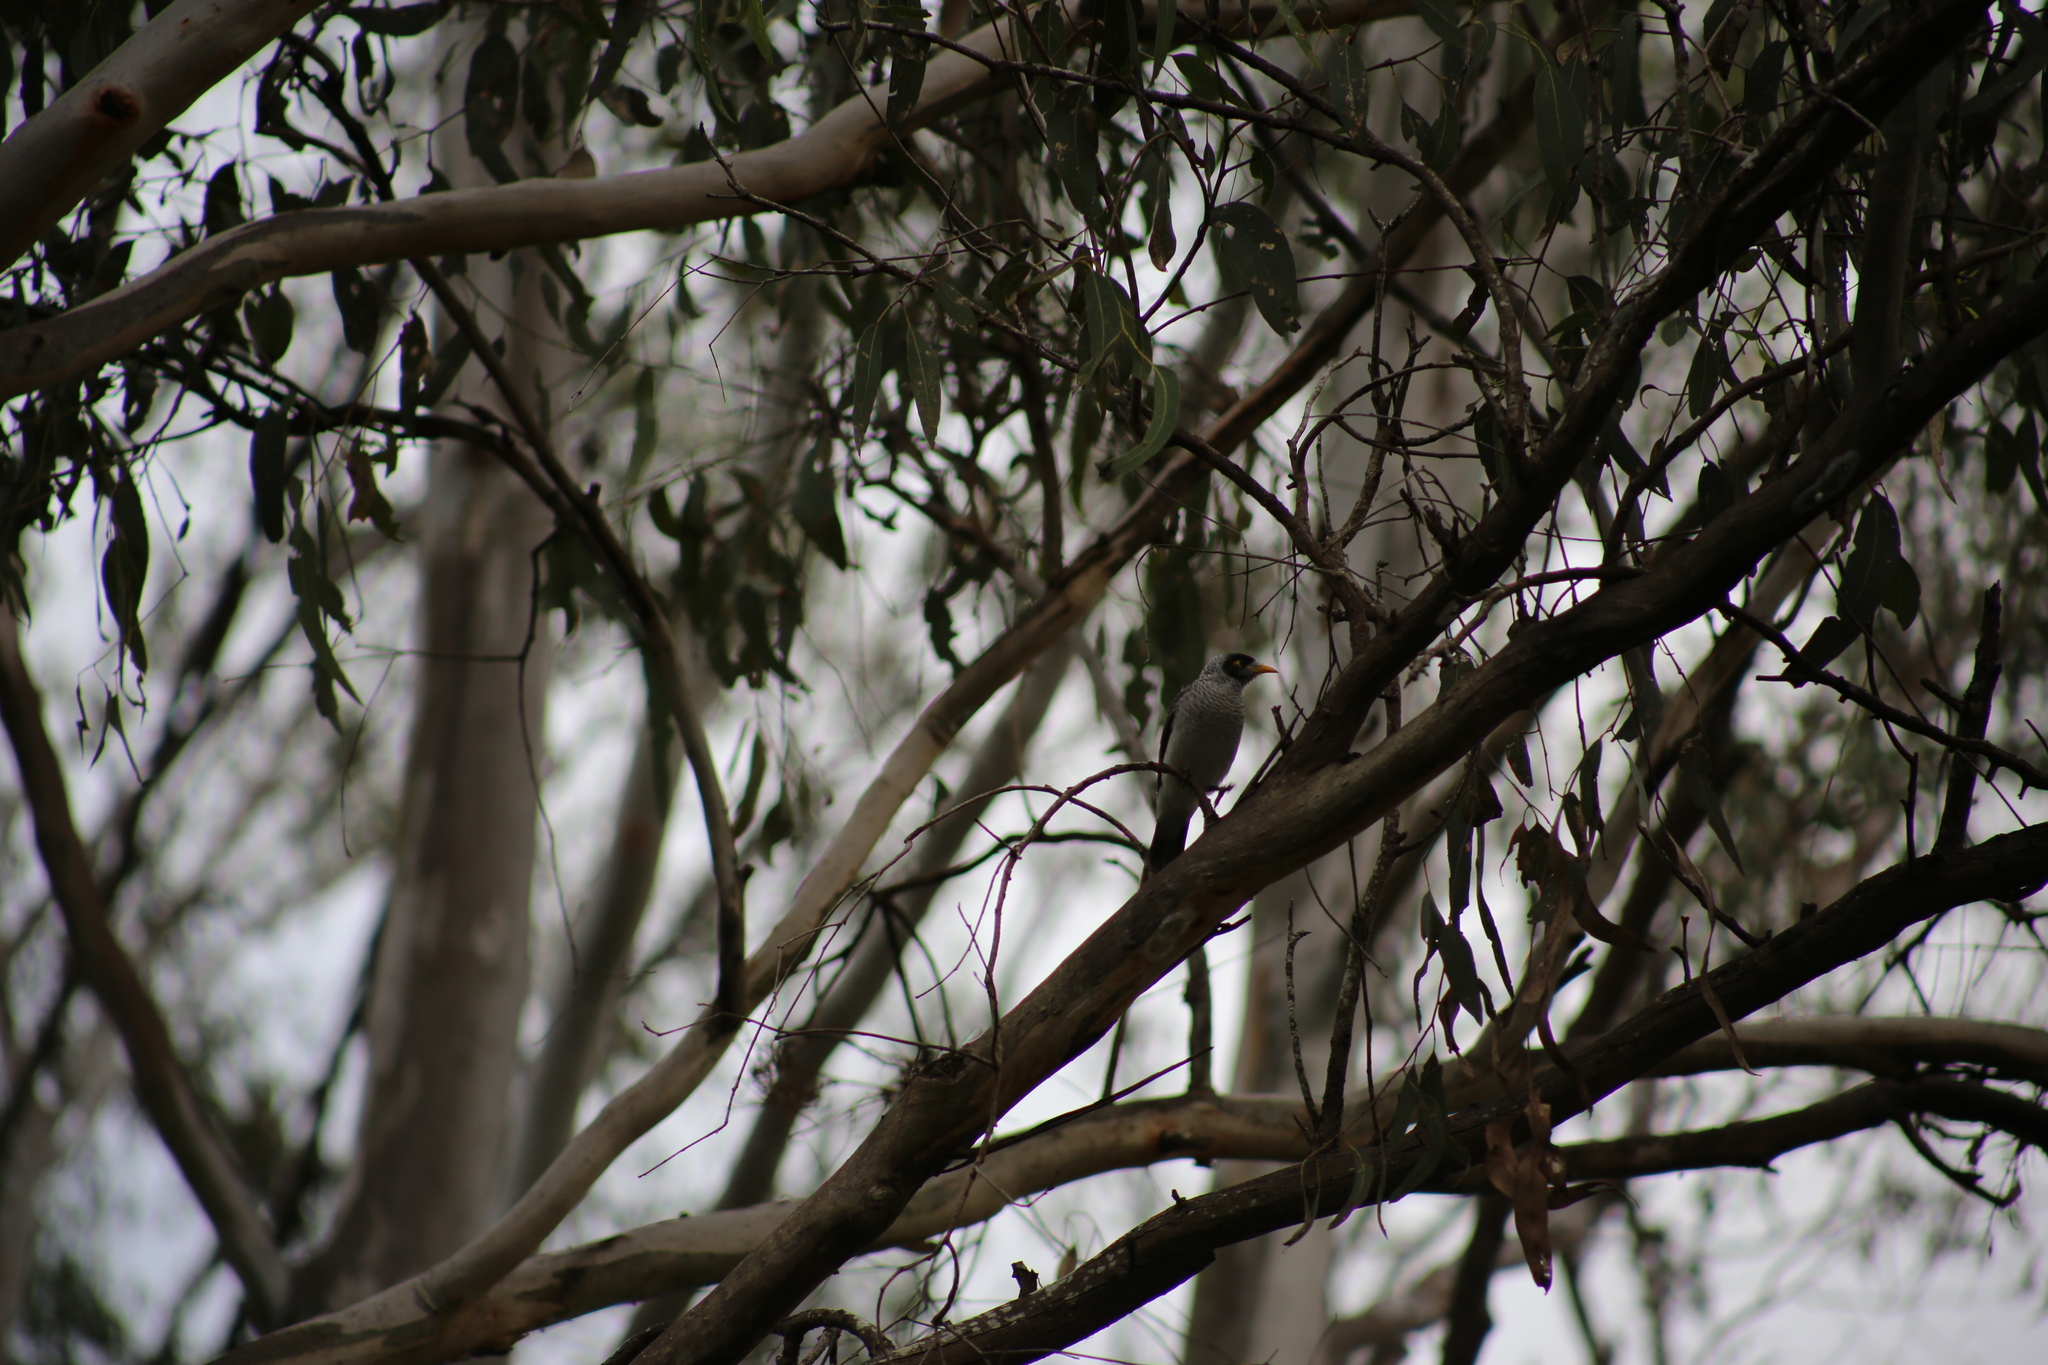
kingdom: Animalia
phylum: Chordata
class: Aves
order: Passeriformes
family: Meliphagidae
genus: Manorina
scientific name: Manorina melanocephala
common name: Noisy miner
